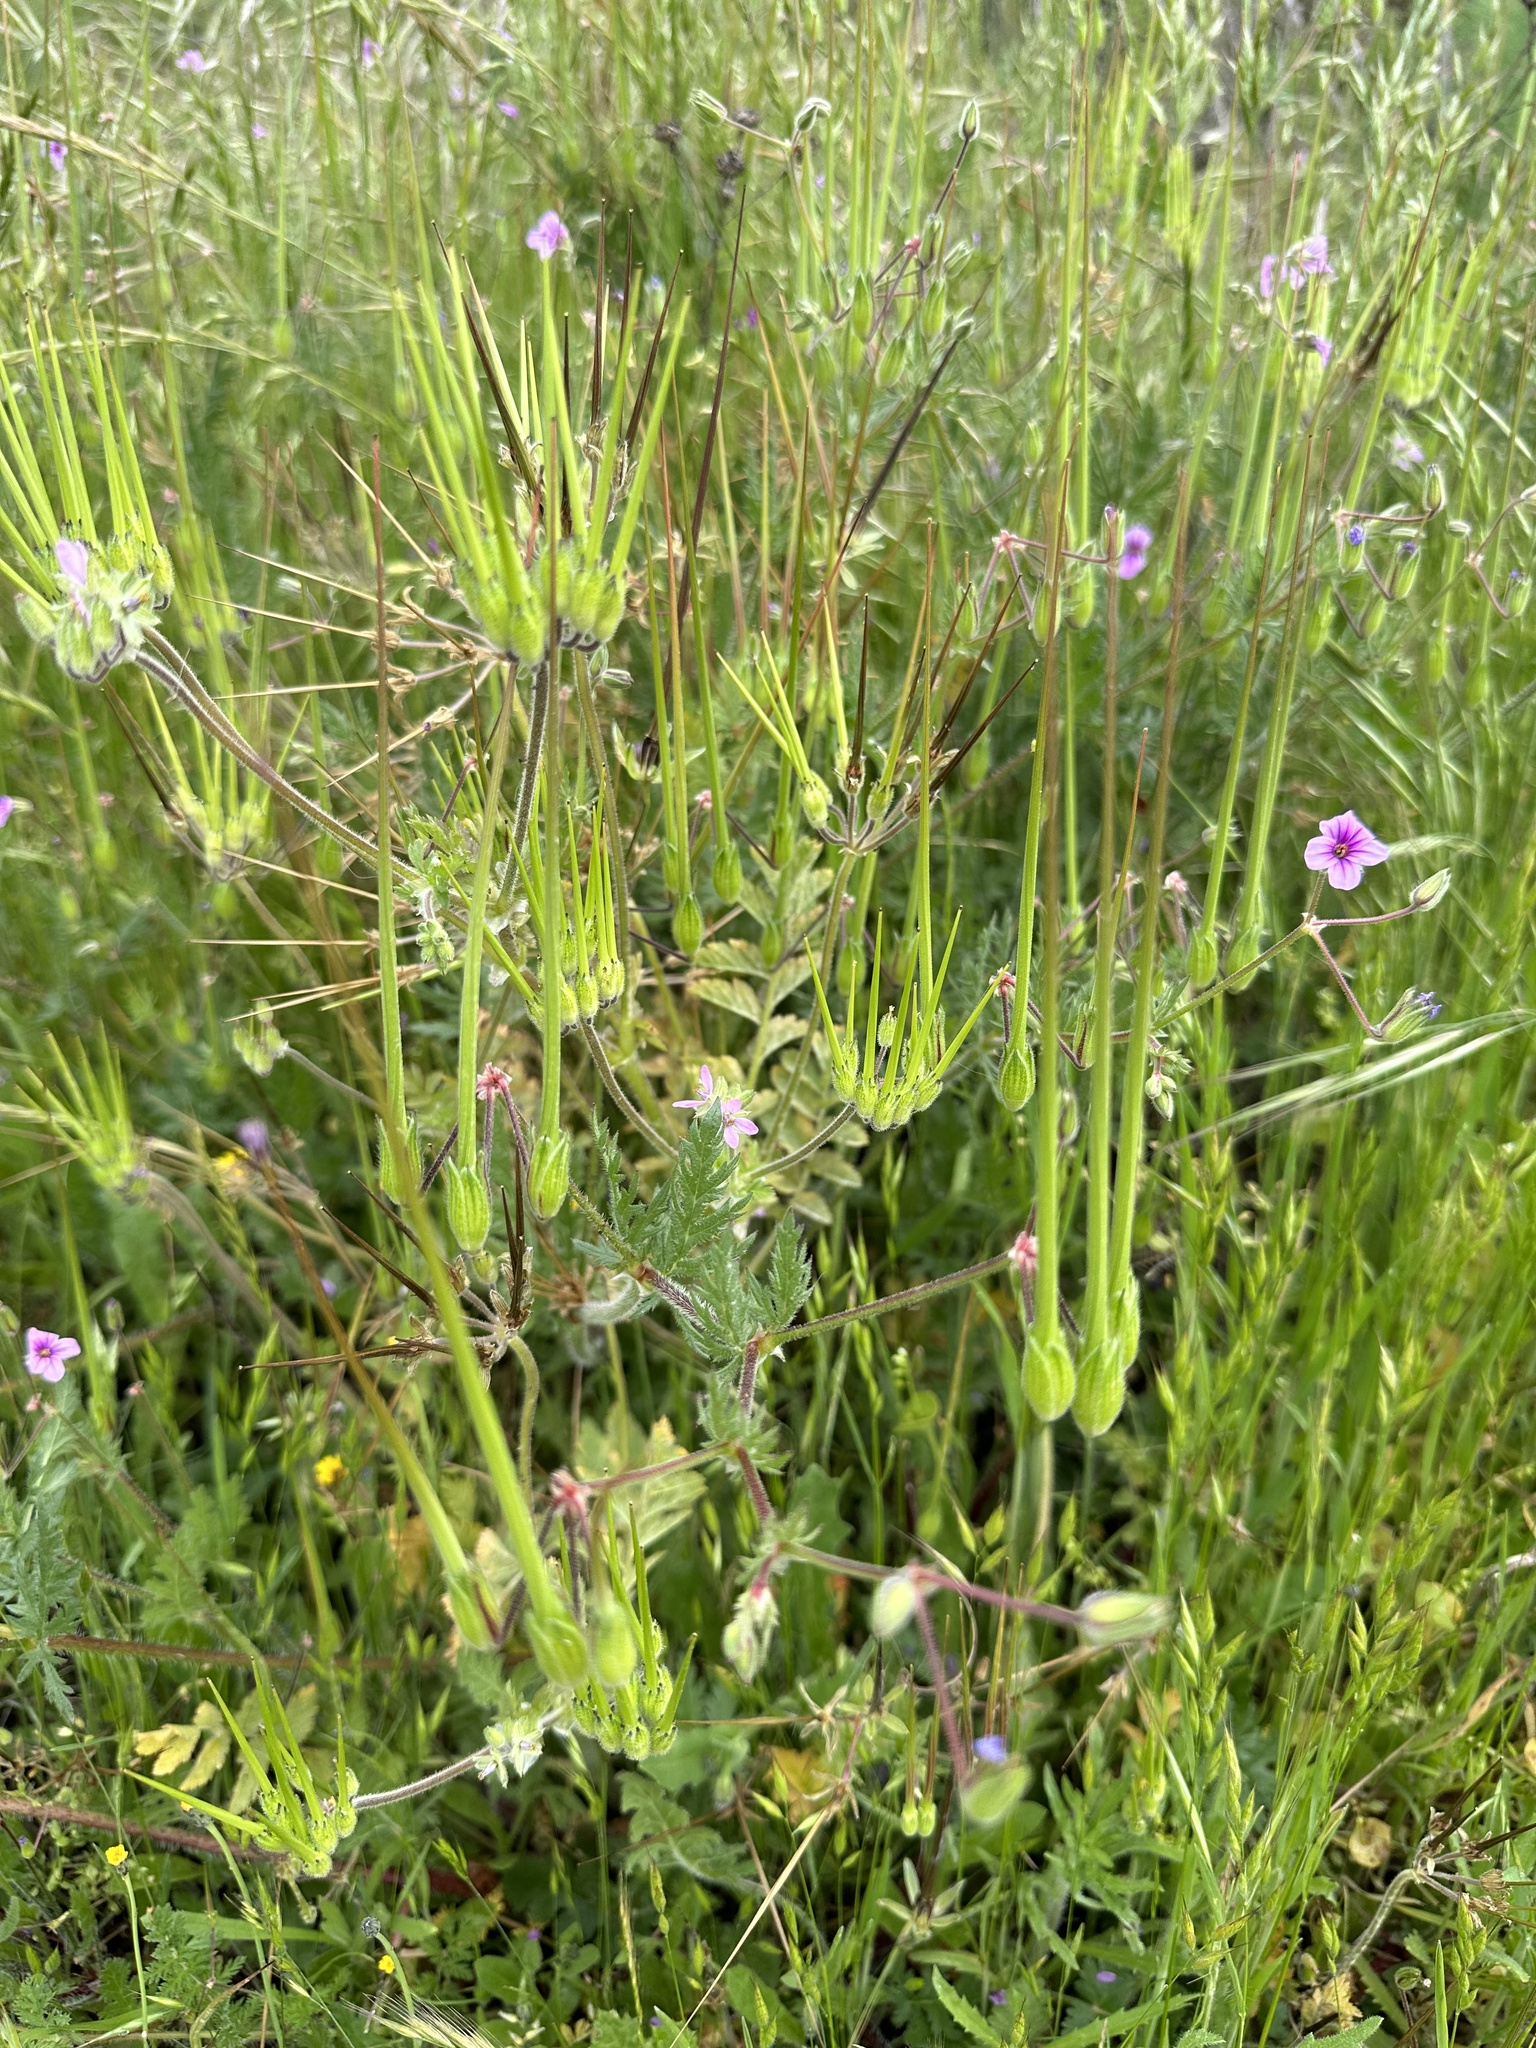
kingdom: Plantae
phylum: Tracheophyta
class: Magnoliopsida
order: Geraniales
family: Geraniaceae
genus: Erodium
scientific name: Erodium botrys
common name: Mediterranean stork's-bill
